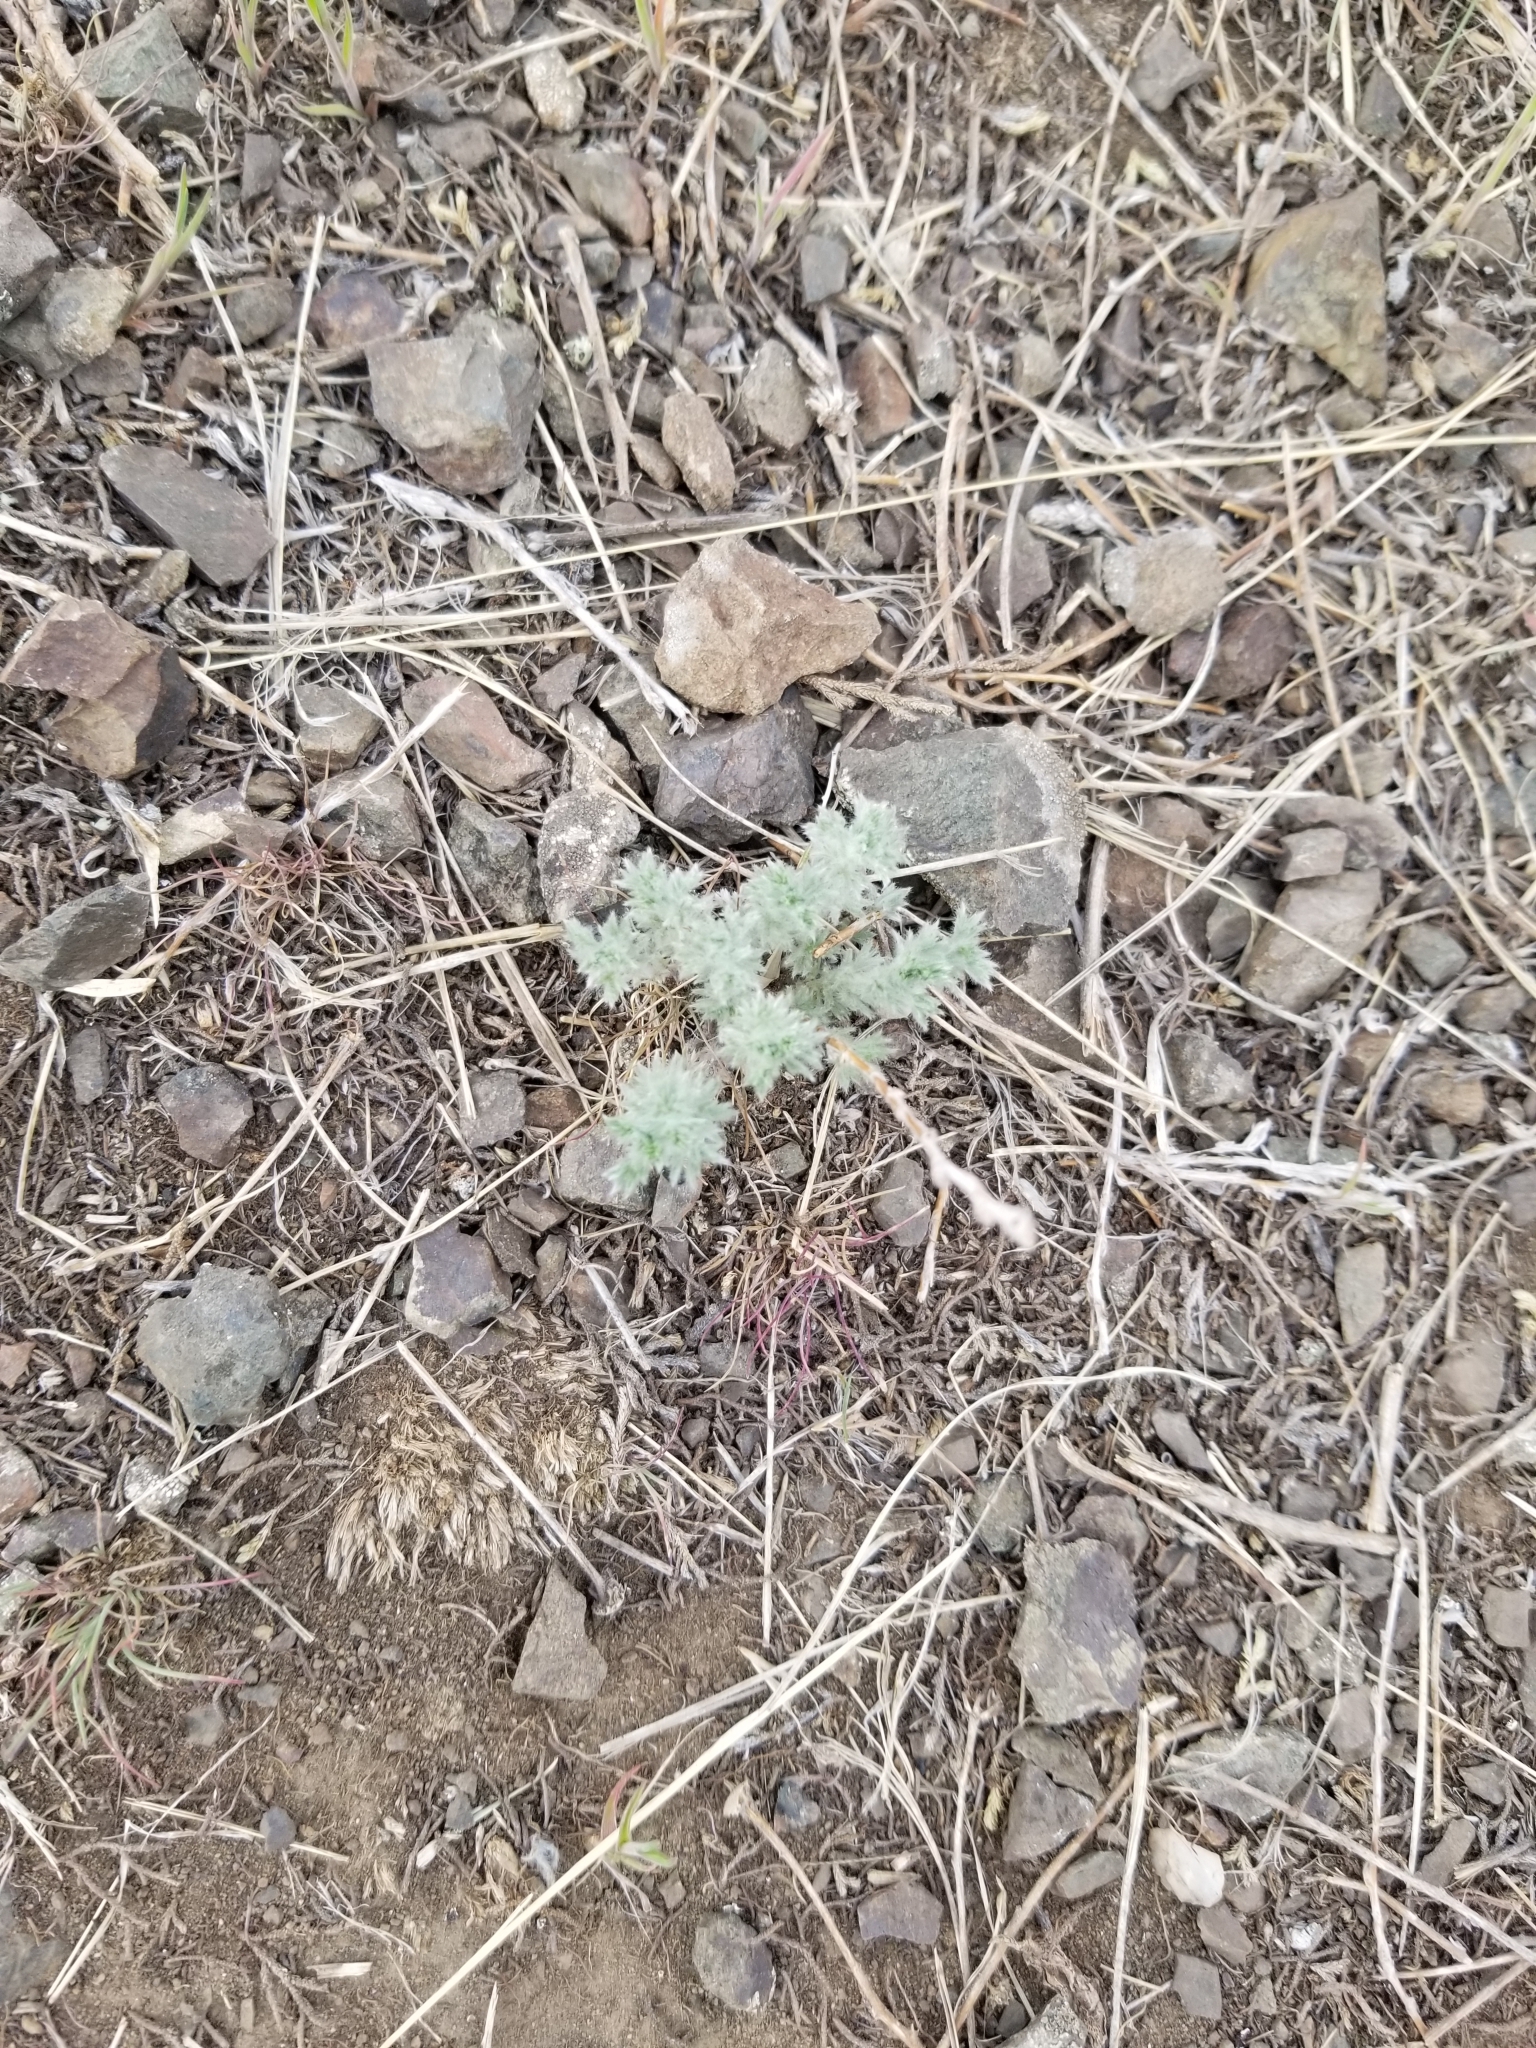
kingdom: Plantae
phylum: Tracheophyta
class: Magnoliopsida
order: Asterales
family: Asteraceae
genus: Artemisia
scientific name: Artemisia frigida
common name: Prairie sagewort
